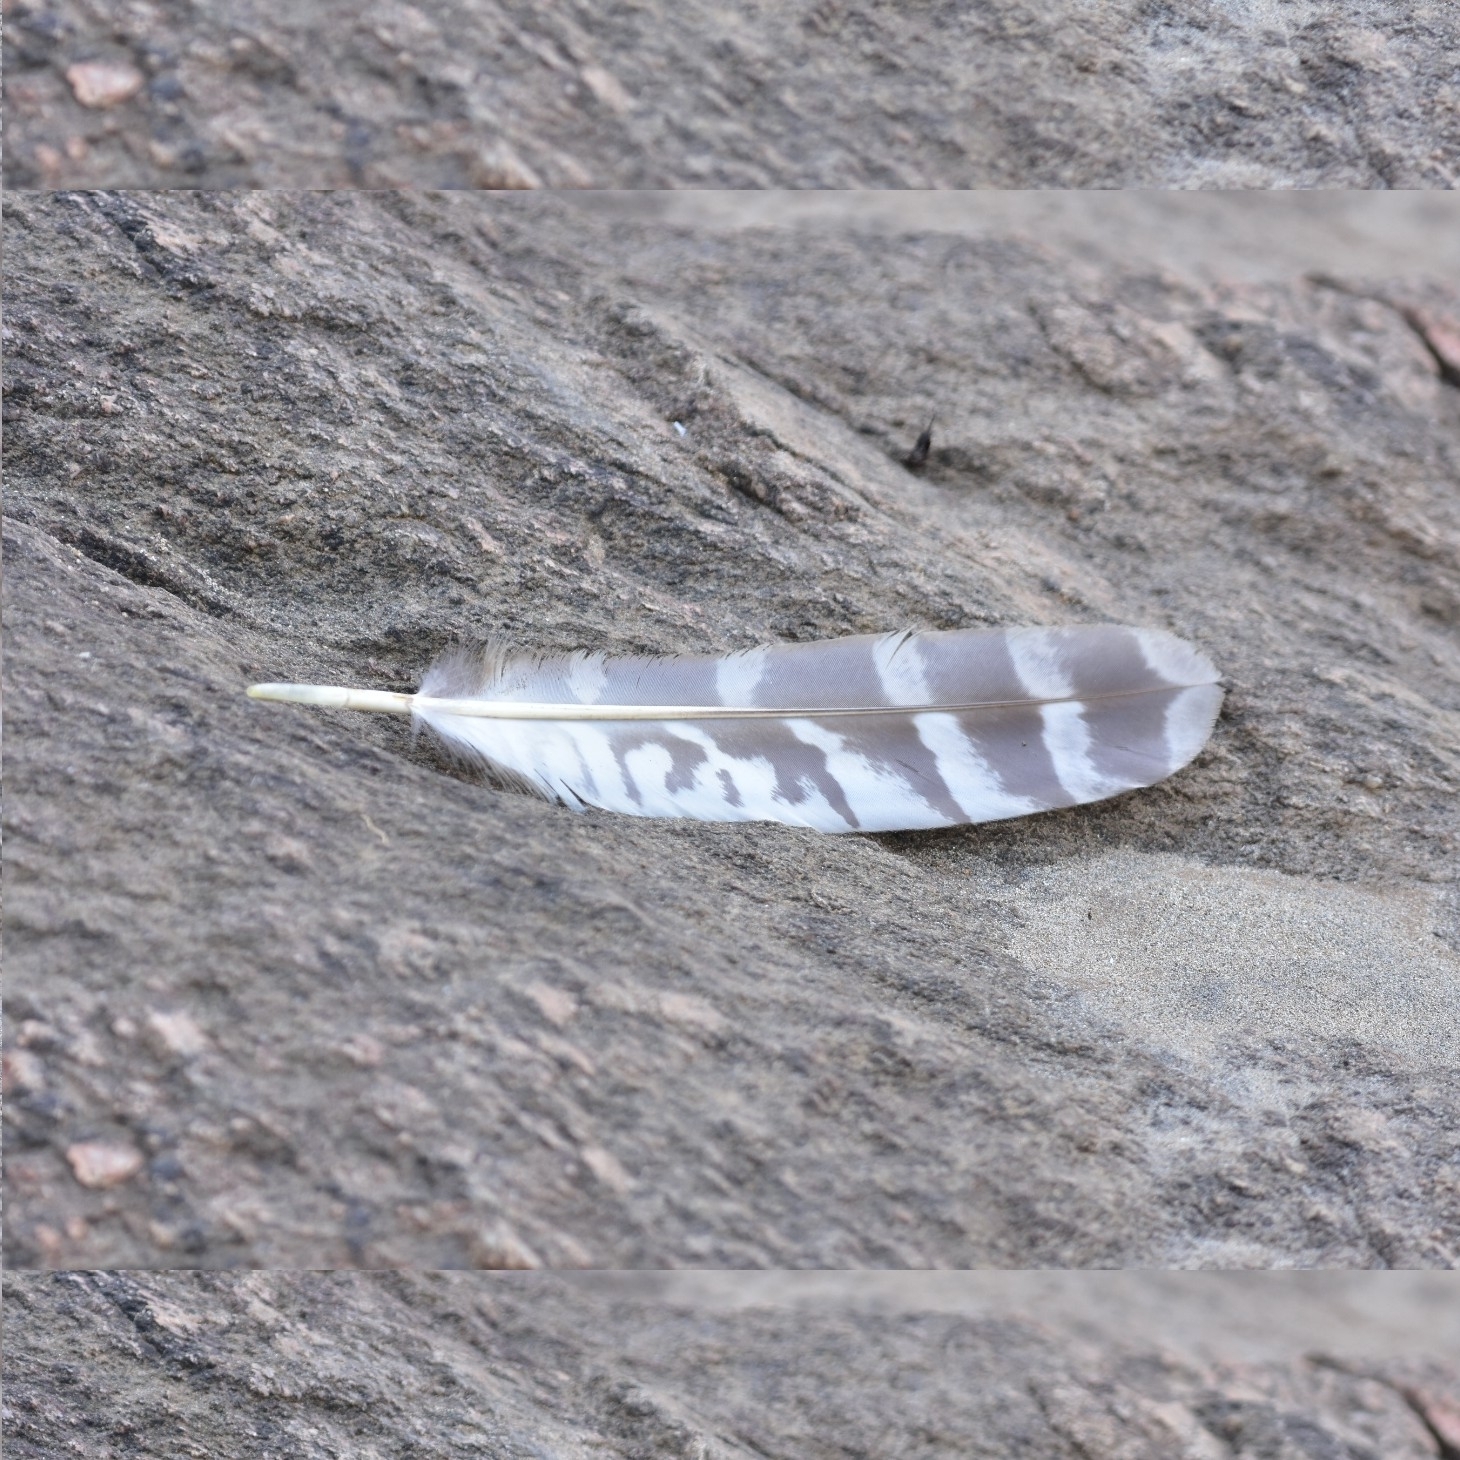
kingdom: Animalia
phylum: Chordata
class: Aves
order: Strigiformes
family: Strigidae
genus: Ketupa
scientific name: Ketupa zeylonensis
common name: Brown fish owl
